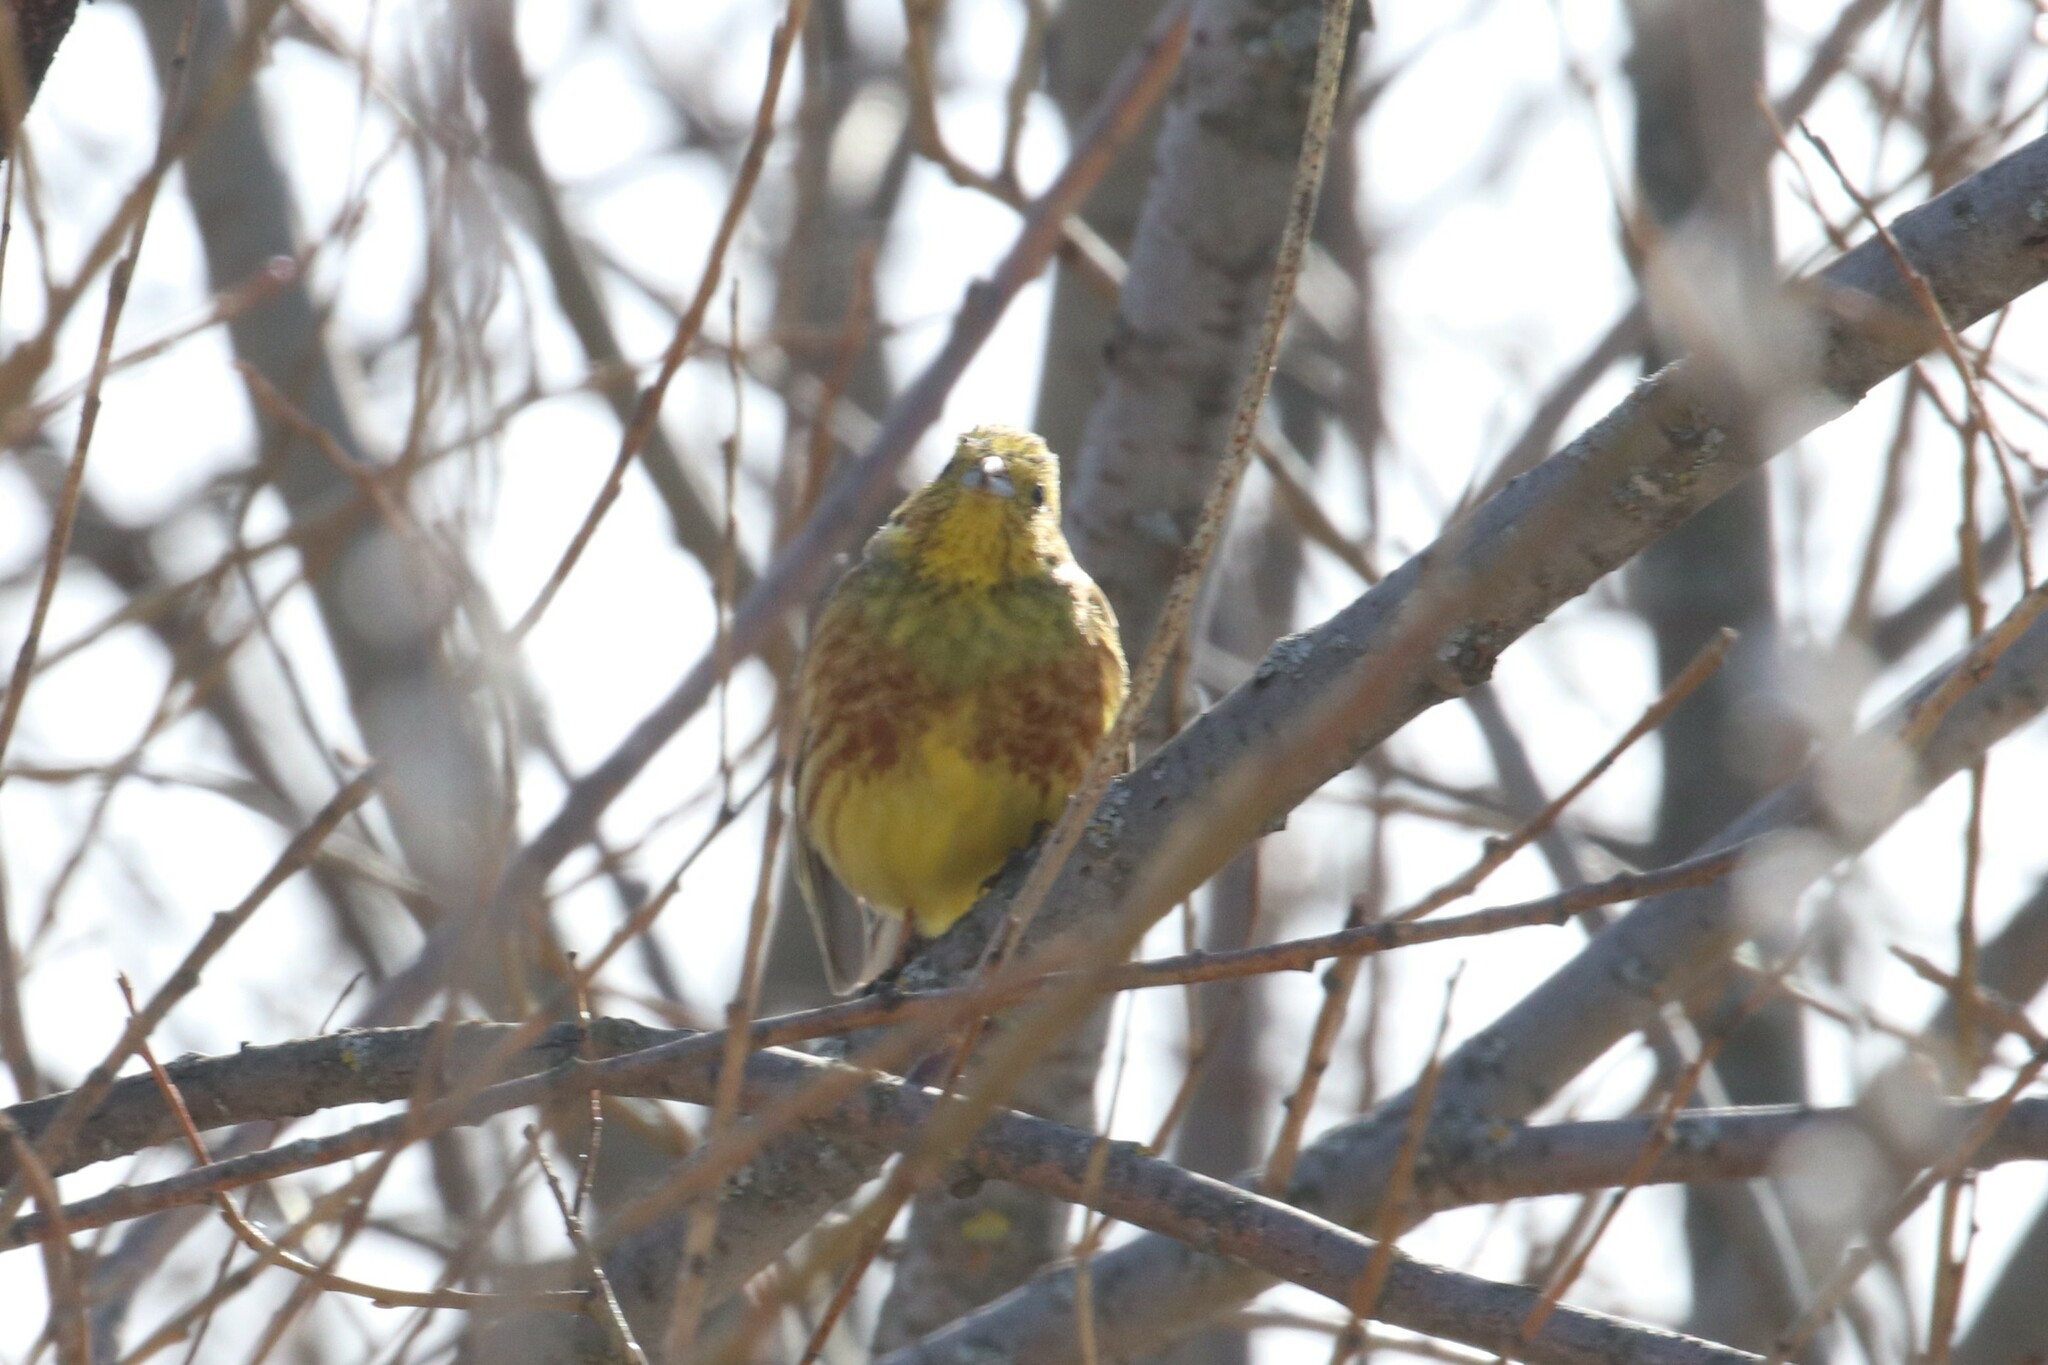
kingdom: Animalia
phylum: Chordata
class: Aves
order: Passeriformes
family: Emberizidae
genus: Emberiza
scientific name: Emberiza citrinella
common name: Yellowhammer
